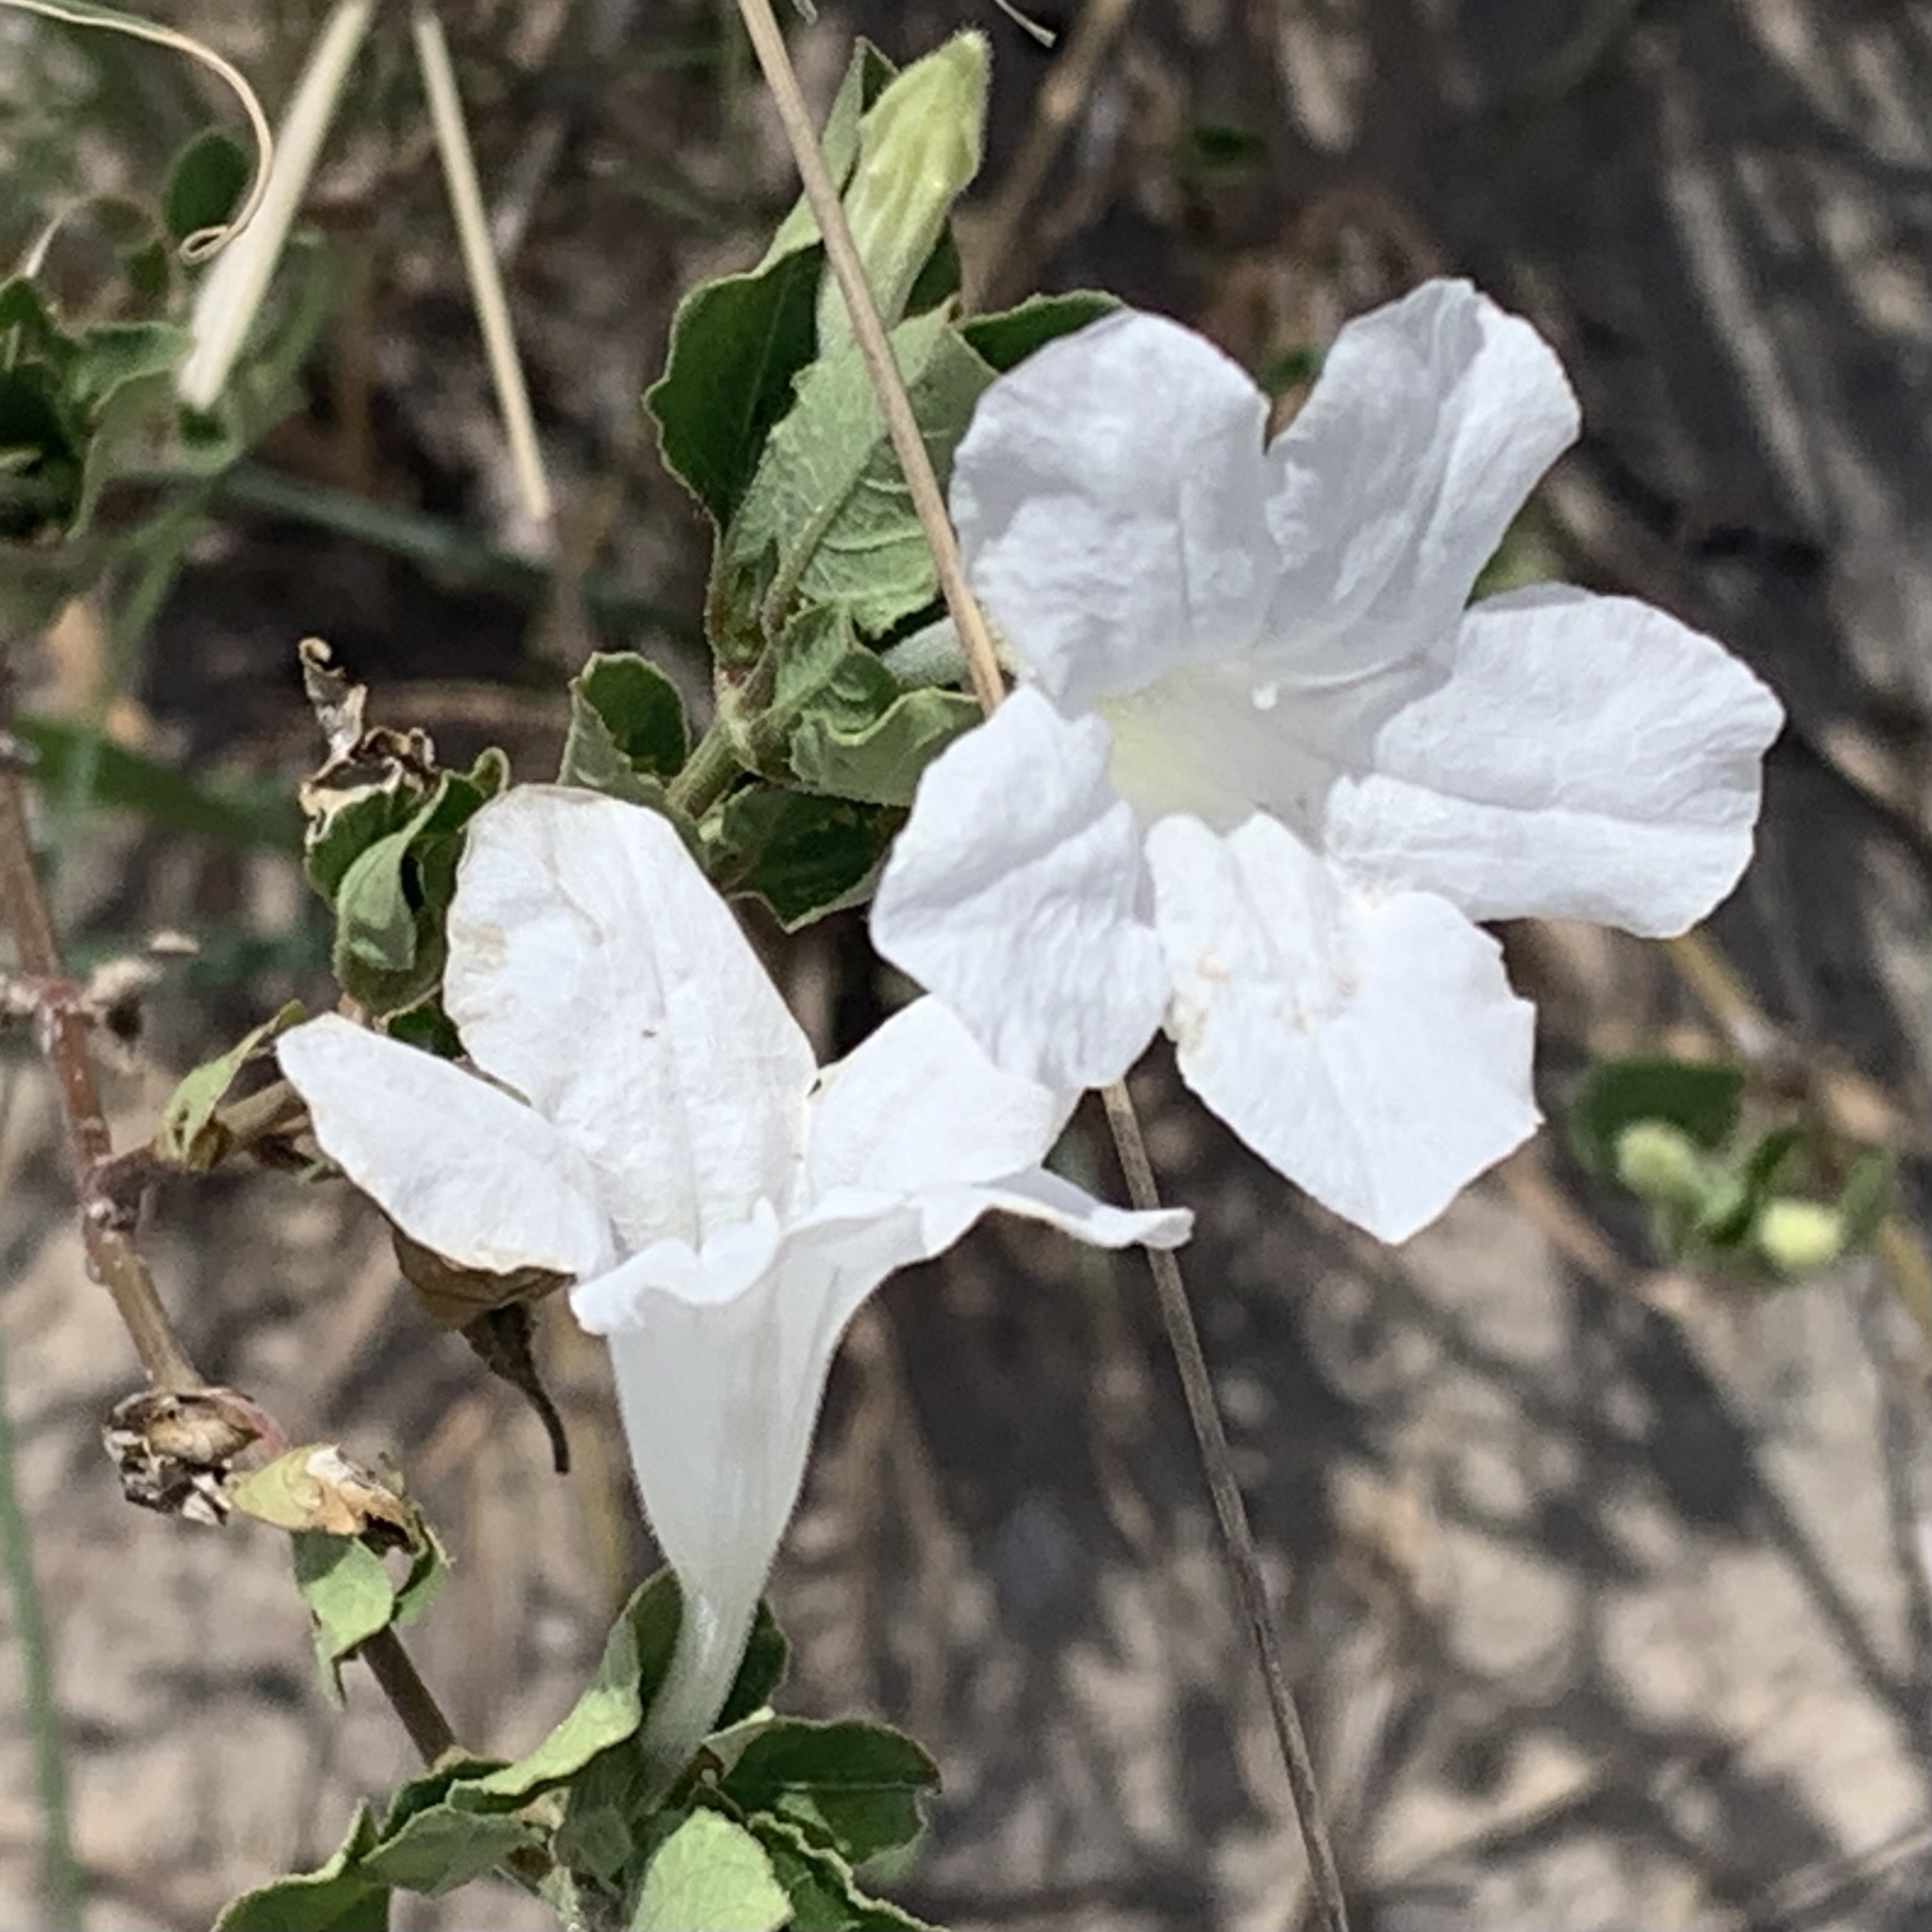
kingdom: Plantae
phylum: Tracheophyta
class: Magnoliopsida
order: Lamiales
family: Acanthaceae
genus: Ruellia
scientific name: Ruellia patula
